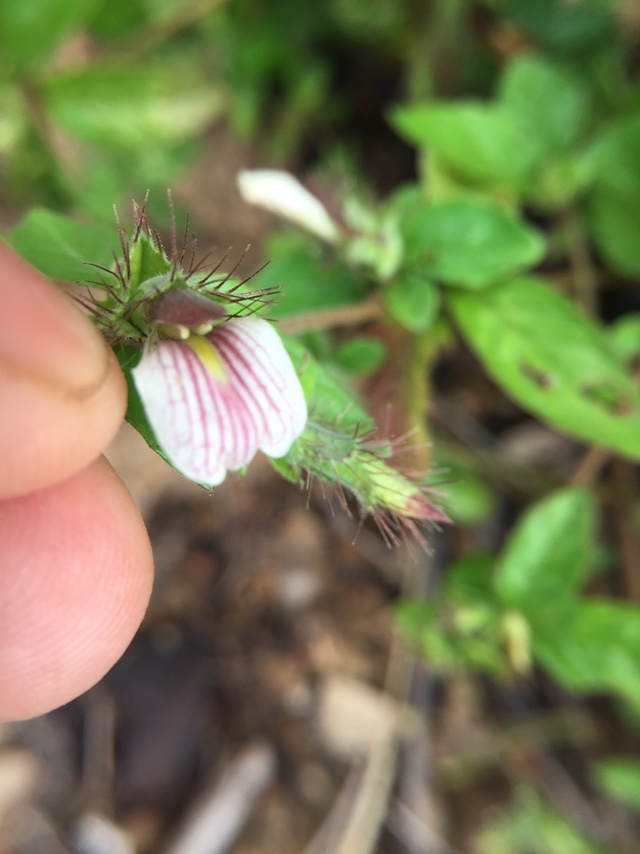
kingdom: Plantae
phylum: Tracheophyta
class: Magnoliopsida
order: Lamiales
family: Acanthaceae
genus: Blepharis
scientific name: Blepharis maderaspatensis
